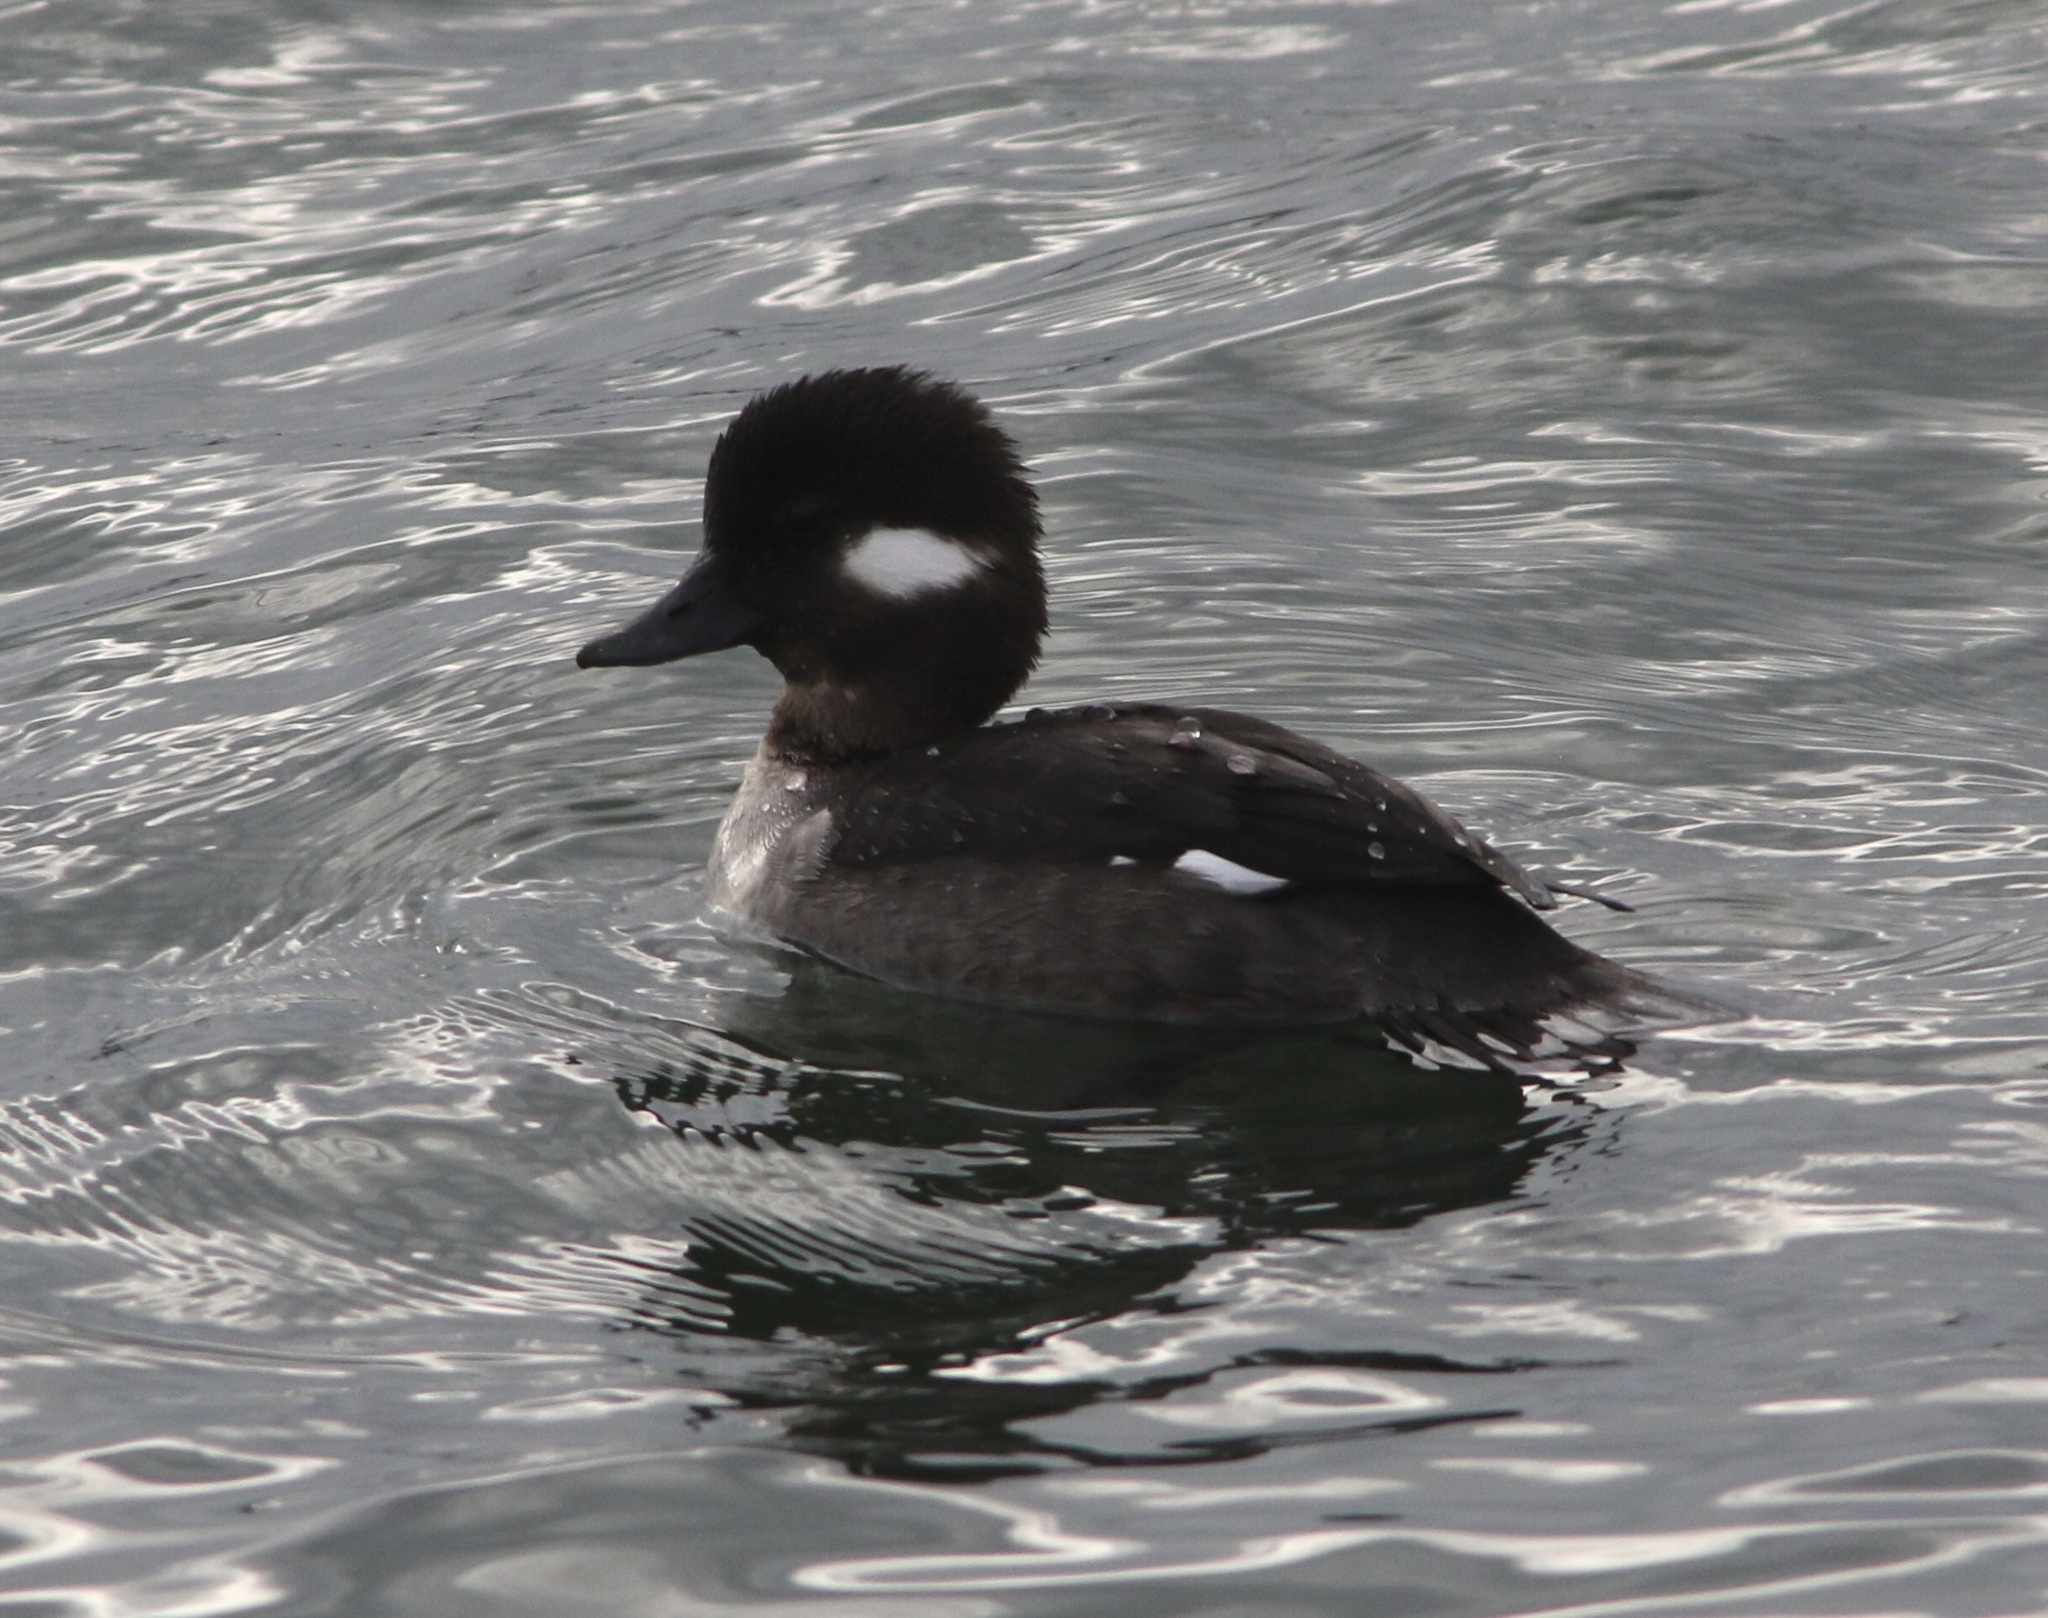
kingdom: Animalia
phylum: Chordata
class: Aves
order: Anseriformes
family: Anatidae
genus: Bucephala
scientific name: Bucephala albeola
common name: Bufflehead
